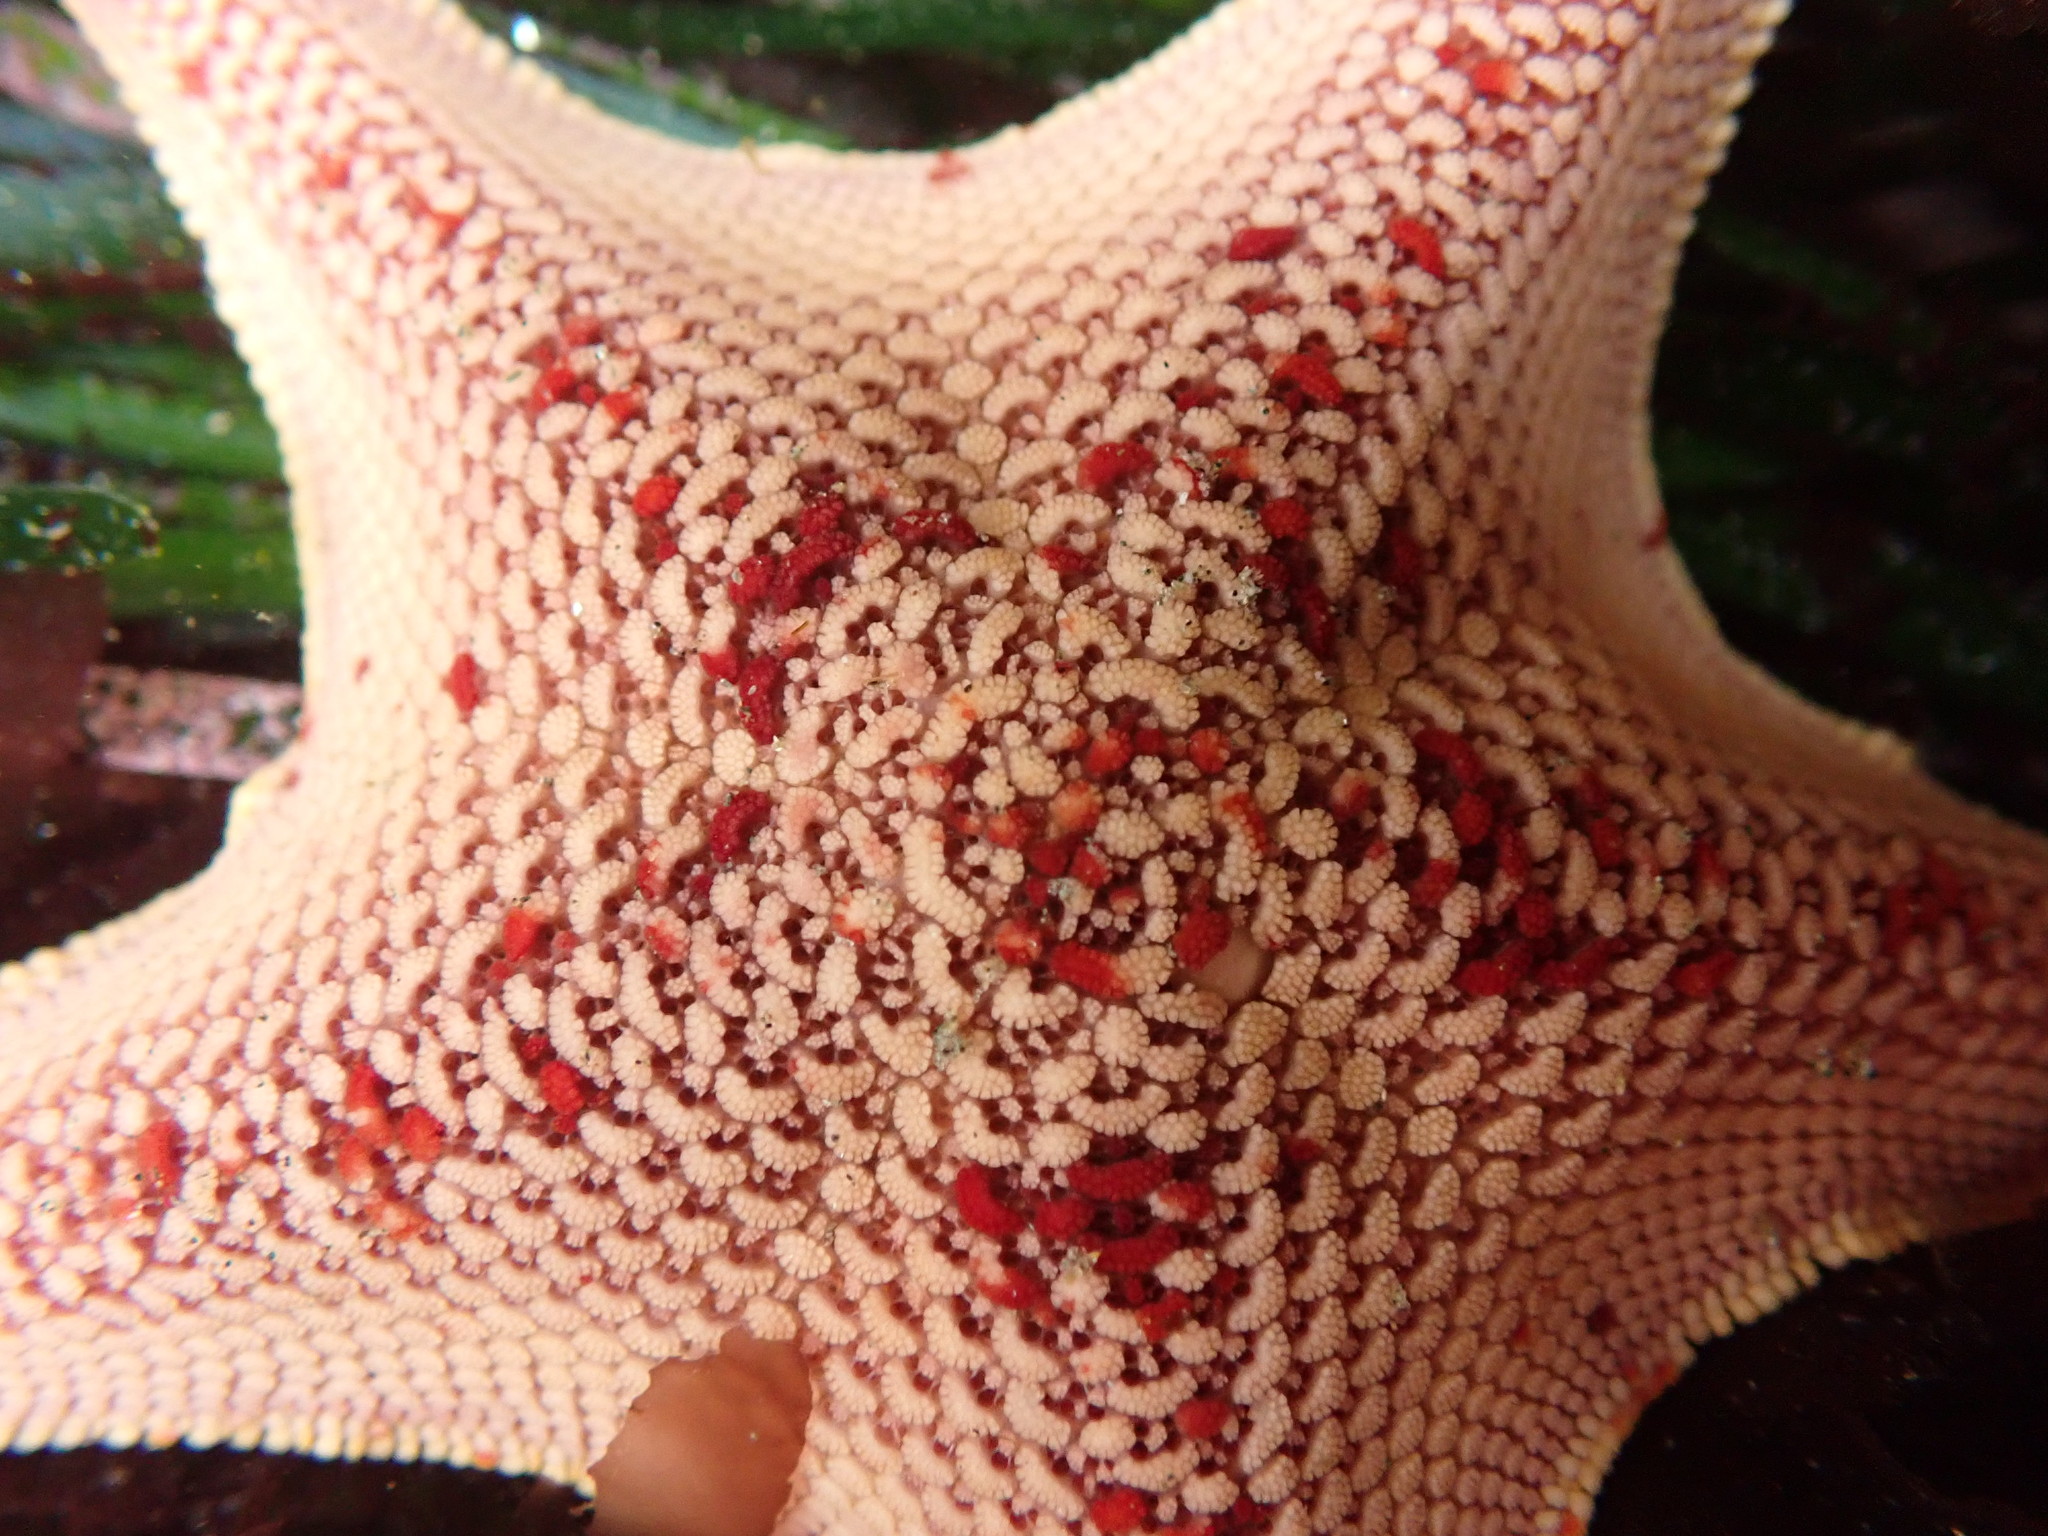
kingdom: Animalia
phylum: Echinodermata
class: Asteroidea
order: Valvatida
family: Asterinidae
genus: Patiria
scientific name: Patiria miniata
